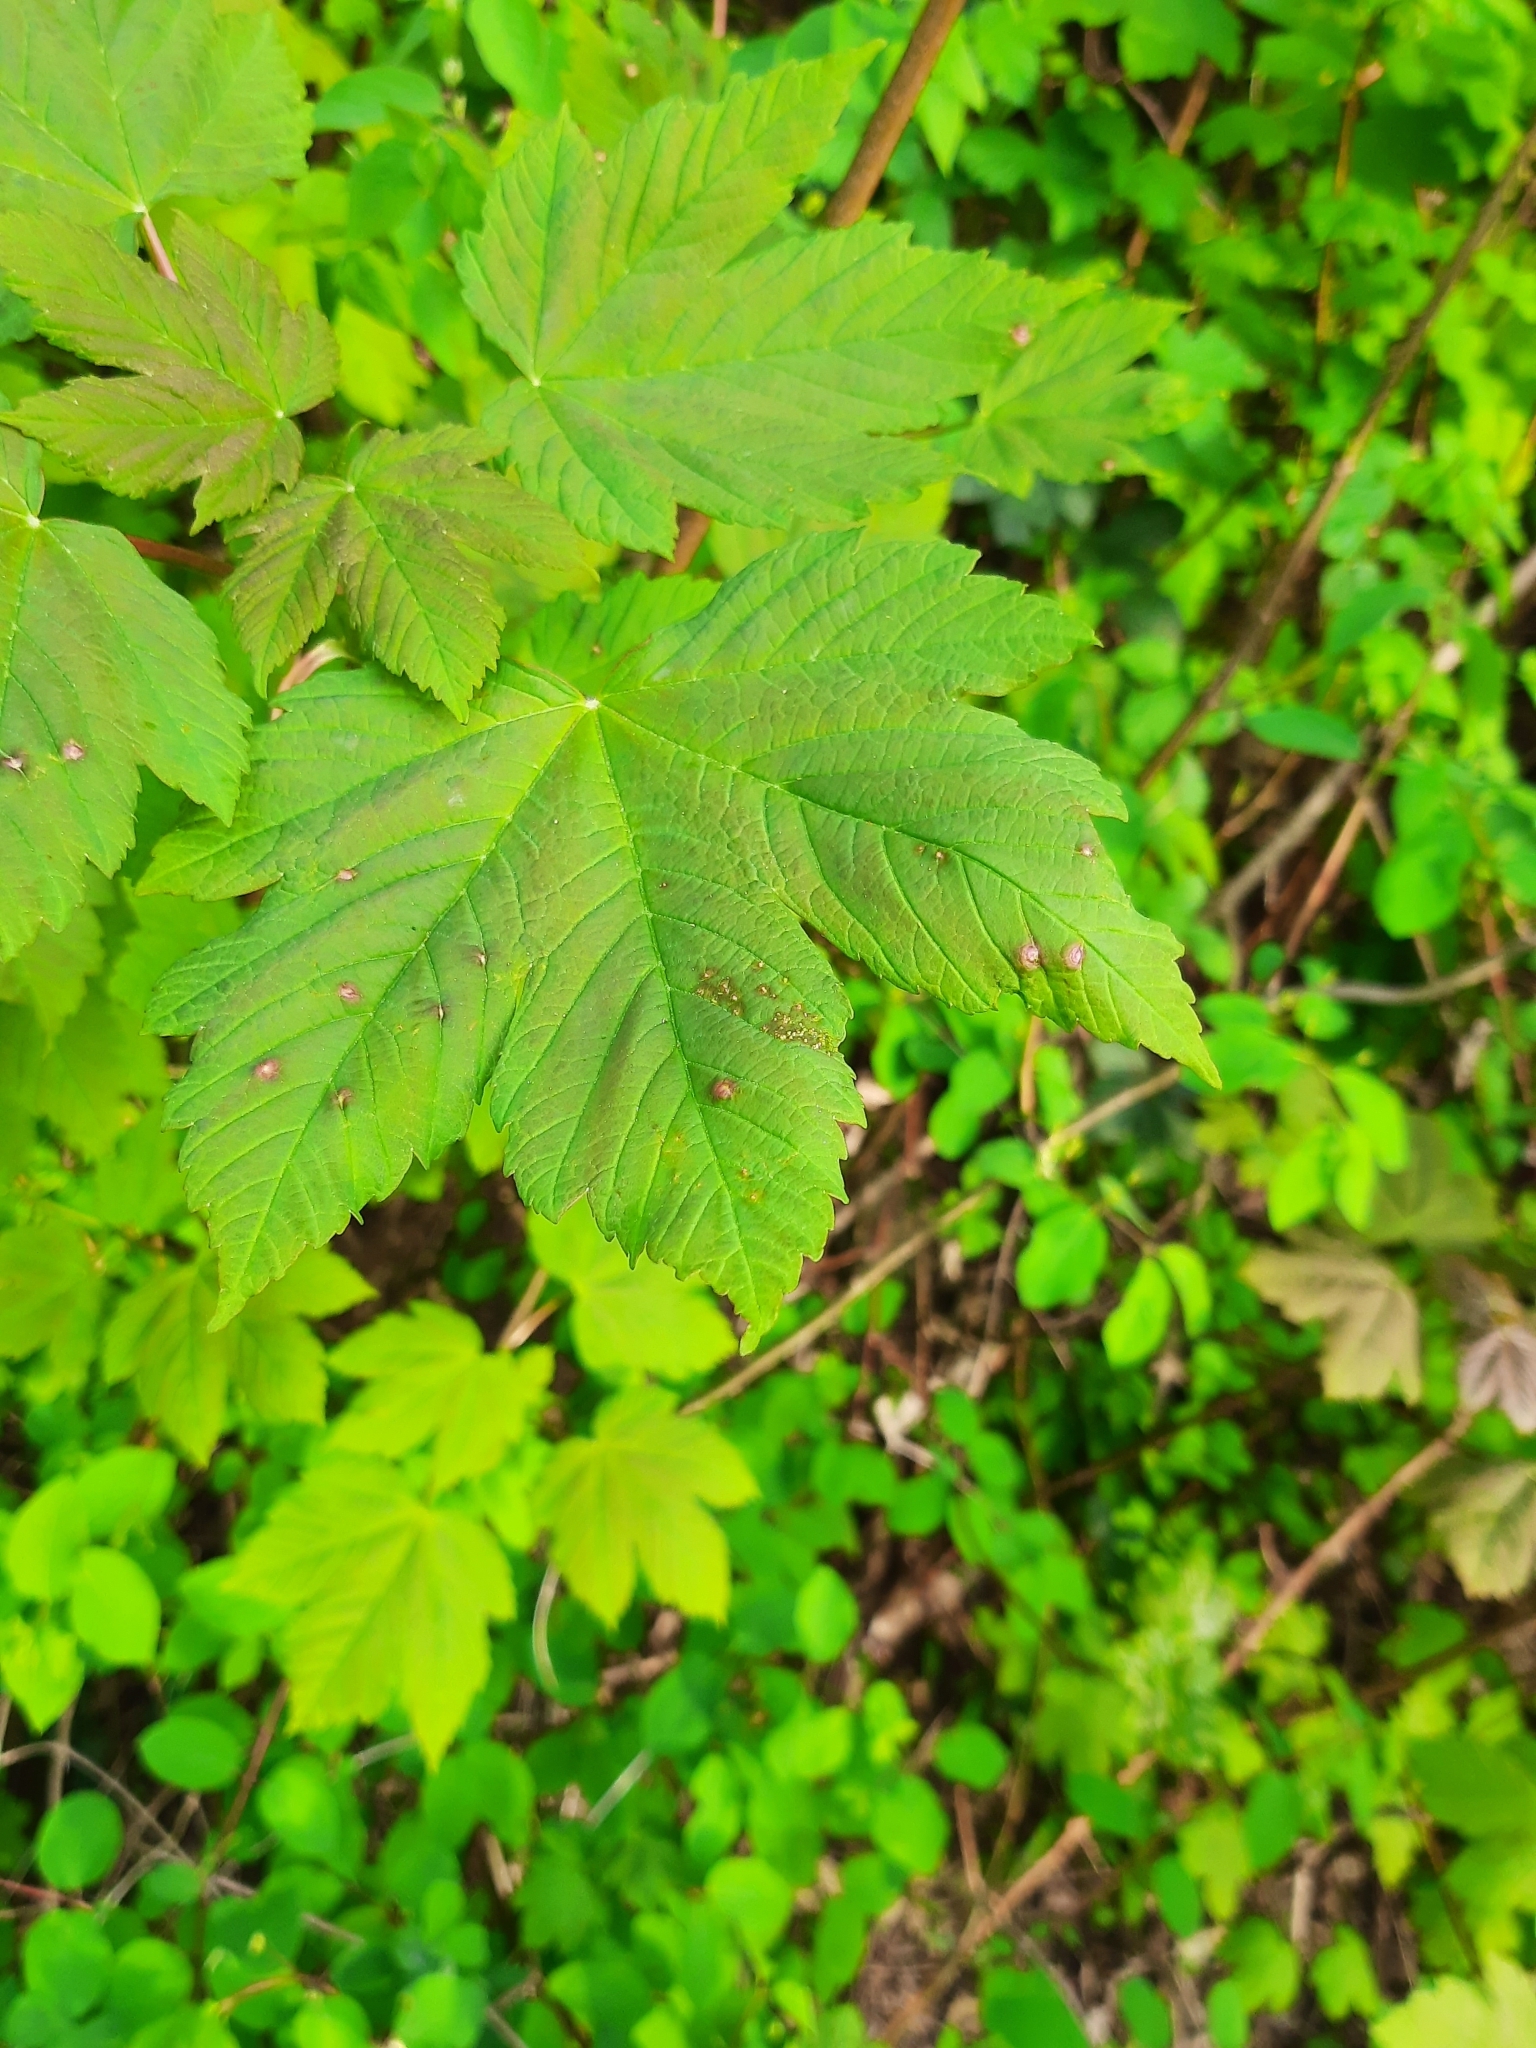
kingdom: Plantae
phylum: Tracheophyta
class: Magnoliopsida
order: Sapindales
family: Sapindaceae
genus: Acer
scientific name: Acer pseudoplatanus
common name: Sycamore
